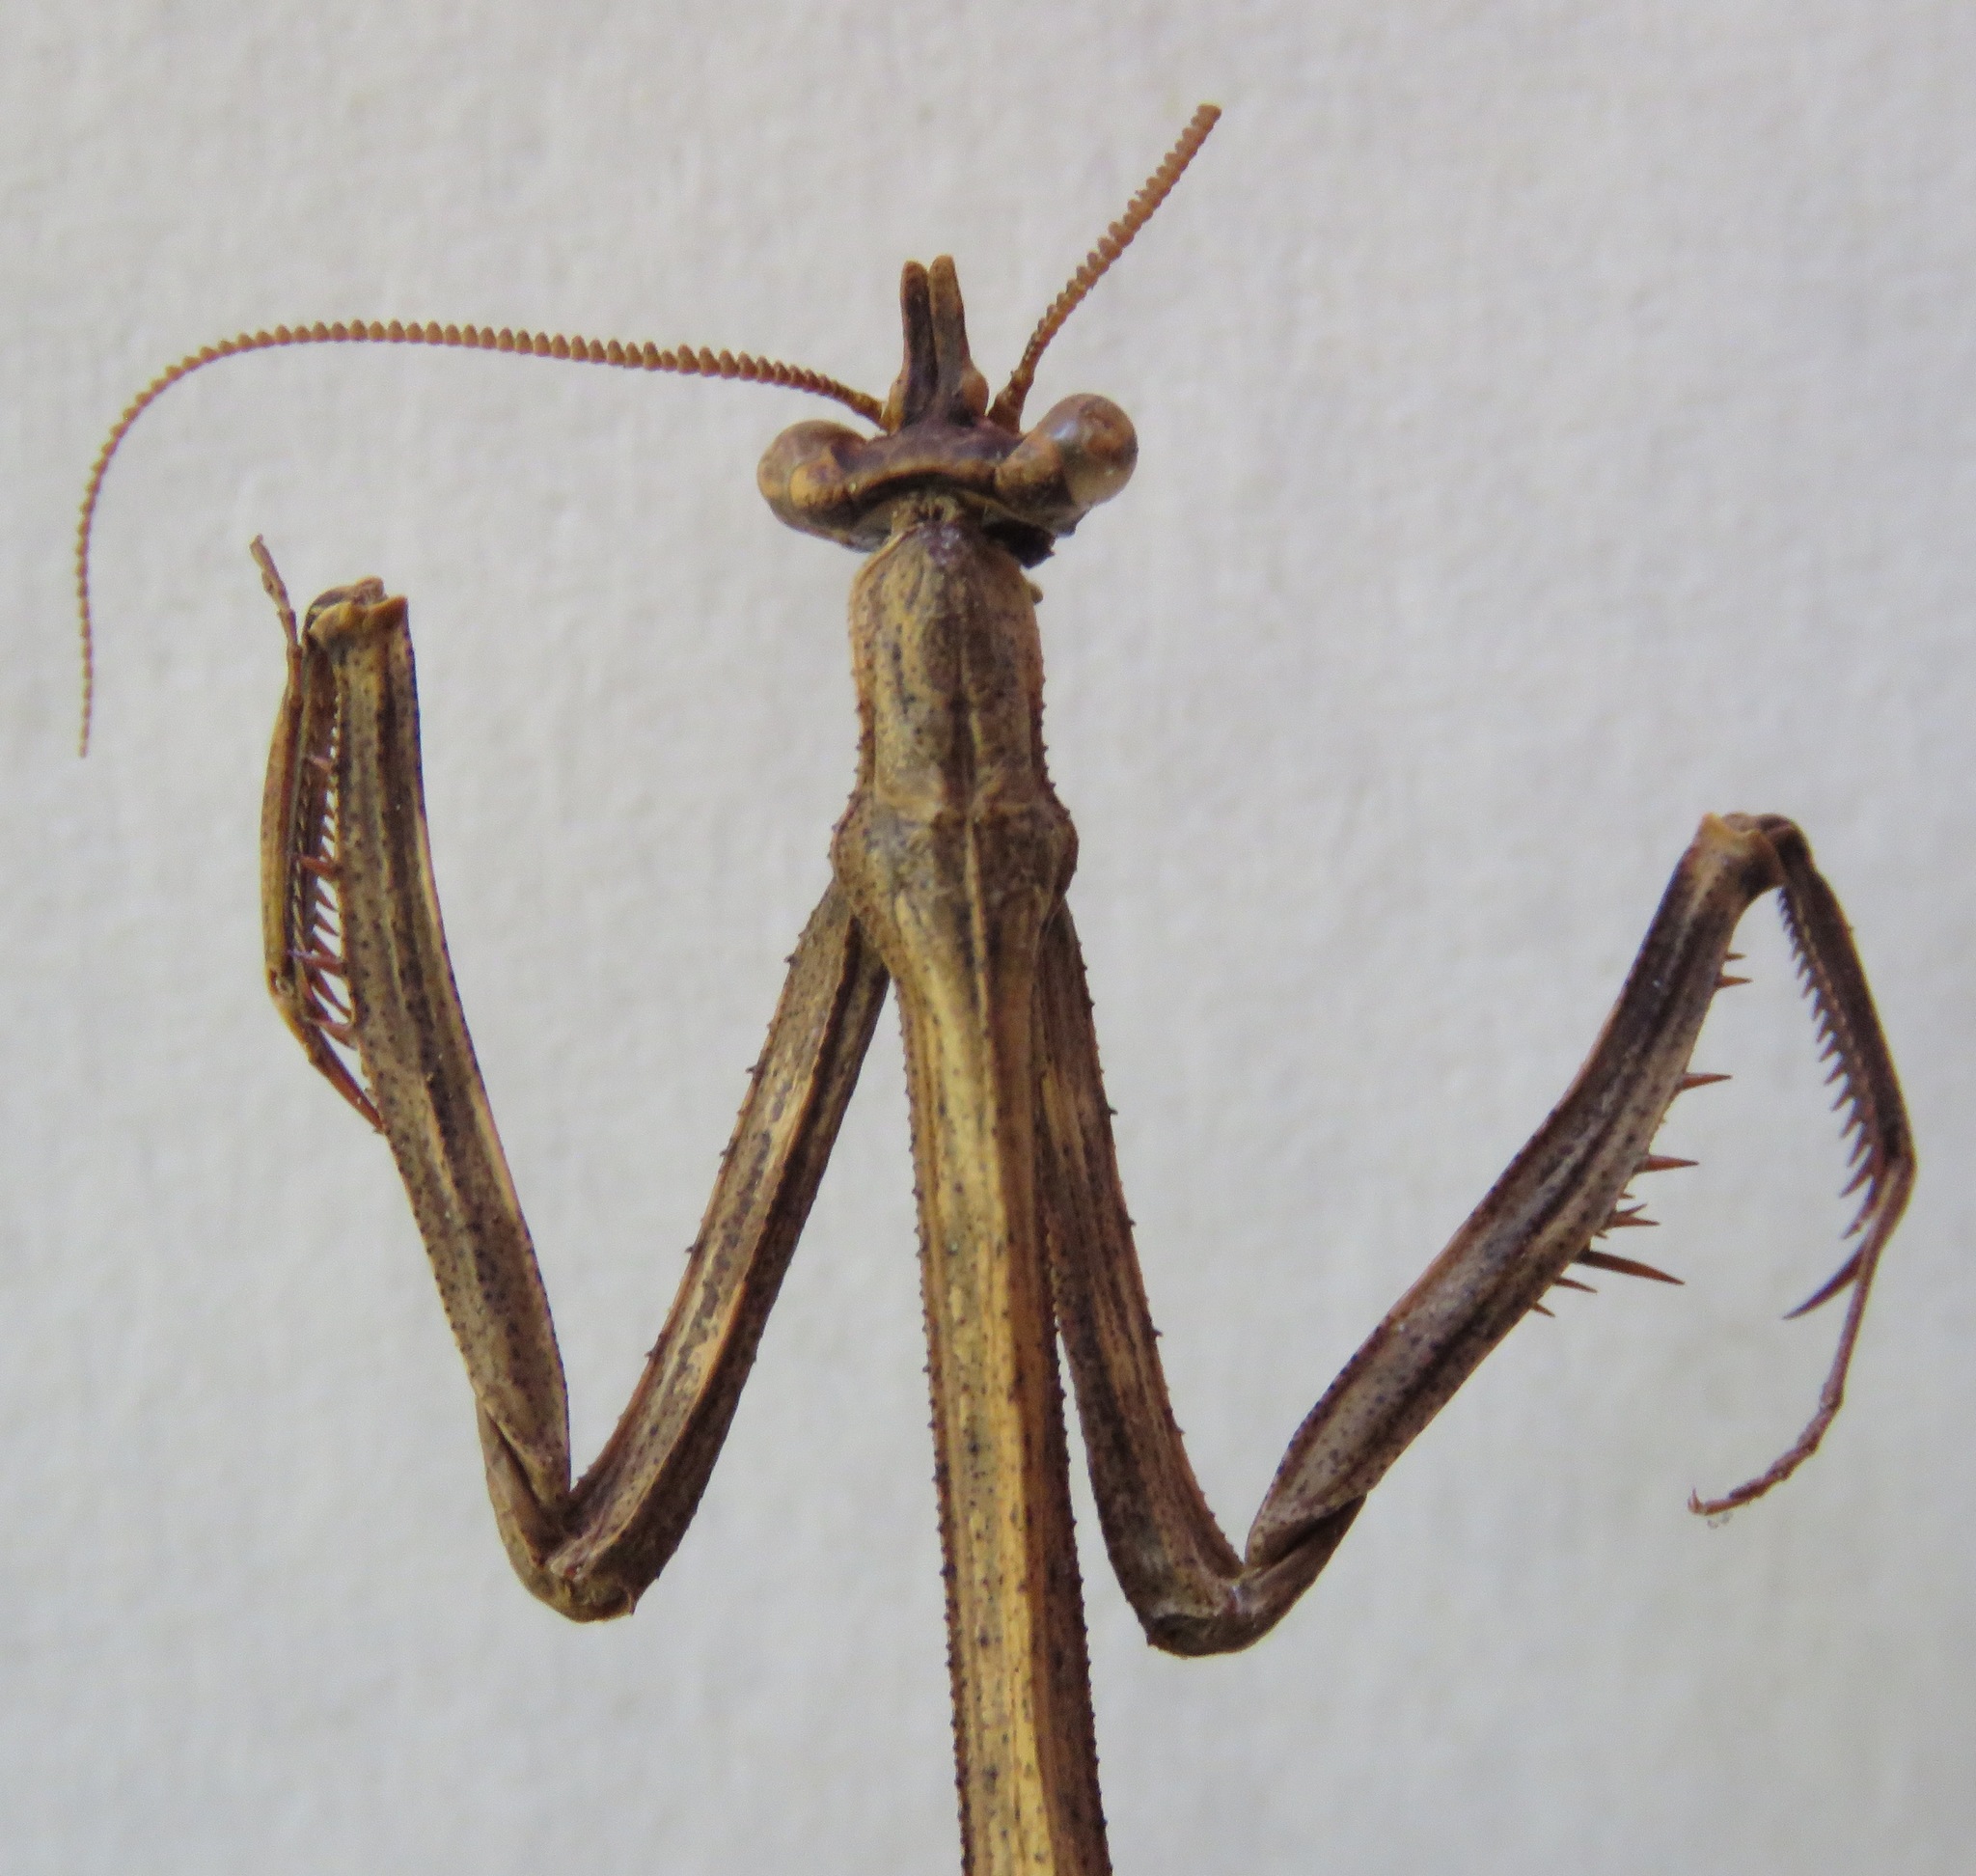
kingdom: Animalia
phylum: Arthropoda
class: Insecta
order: Mantodea
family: Mantidae
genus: Pseudovates
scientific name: Pseudovates chlorophaea
